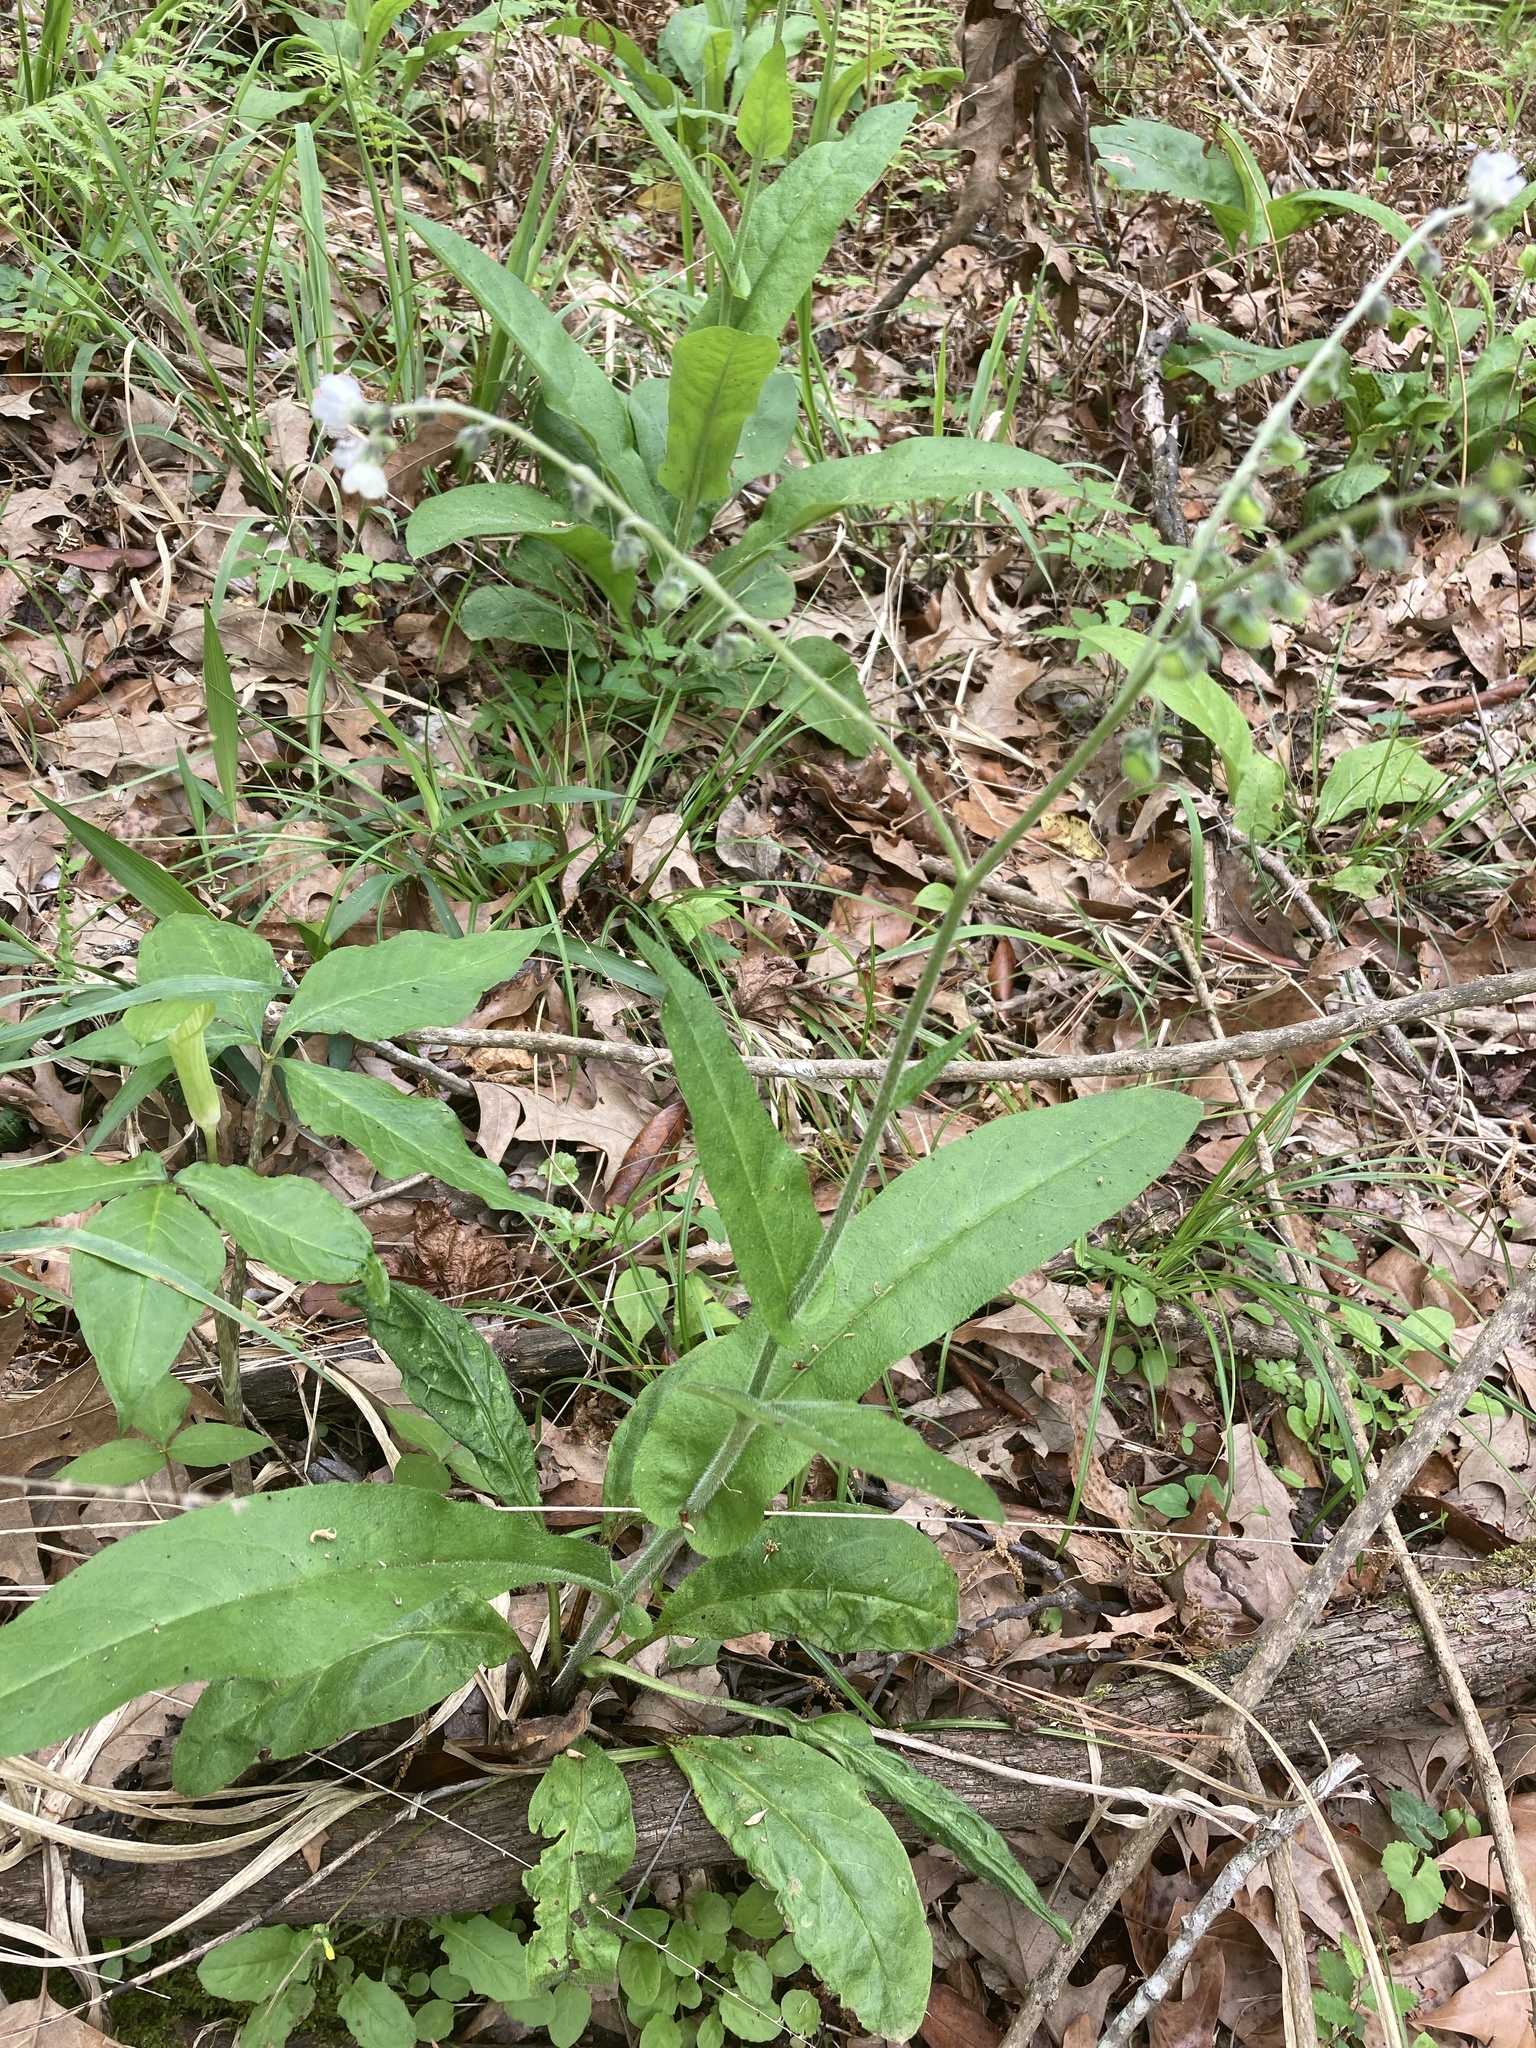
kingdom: Plantae
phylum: Tracheophyta
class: Magnoliopsida
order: Boraginales
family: Boraginaceae
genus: Andersonglossum
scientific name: Andersonglossum virginianum
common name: Wild comfrey
